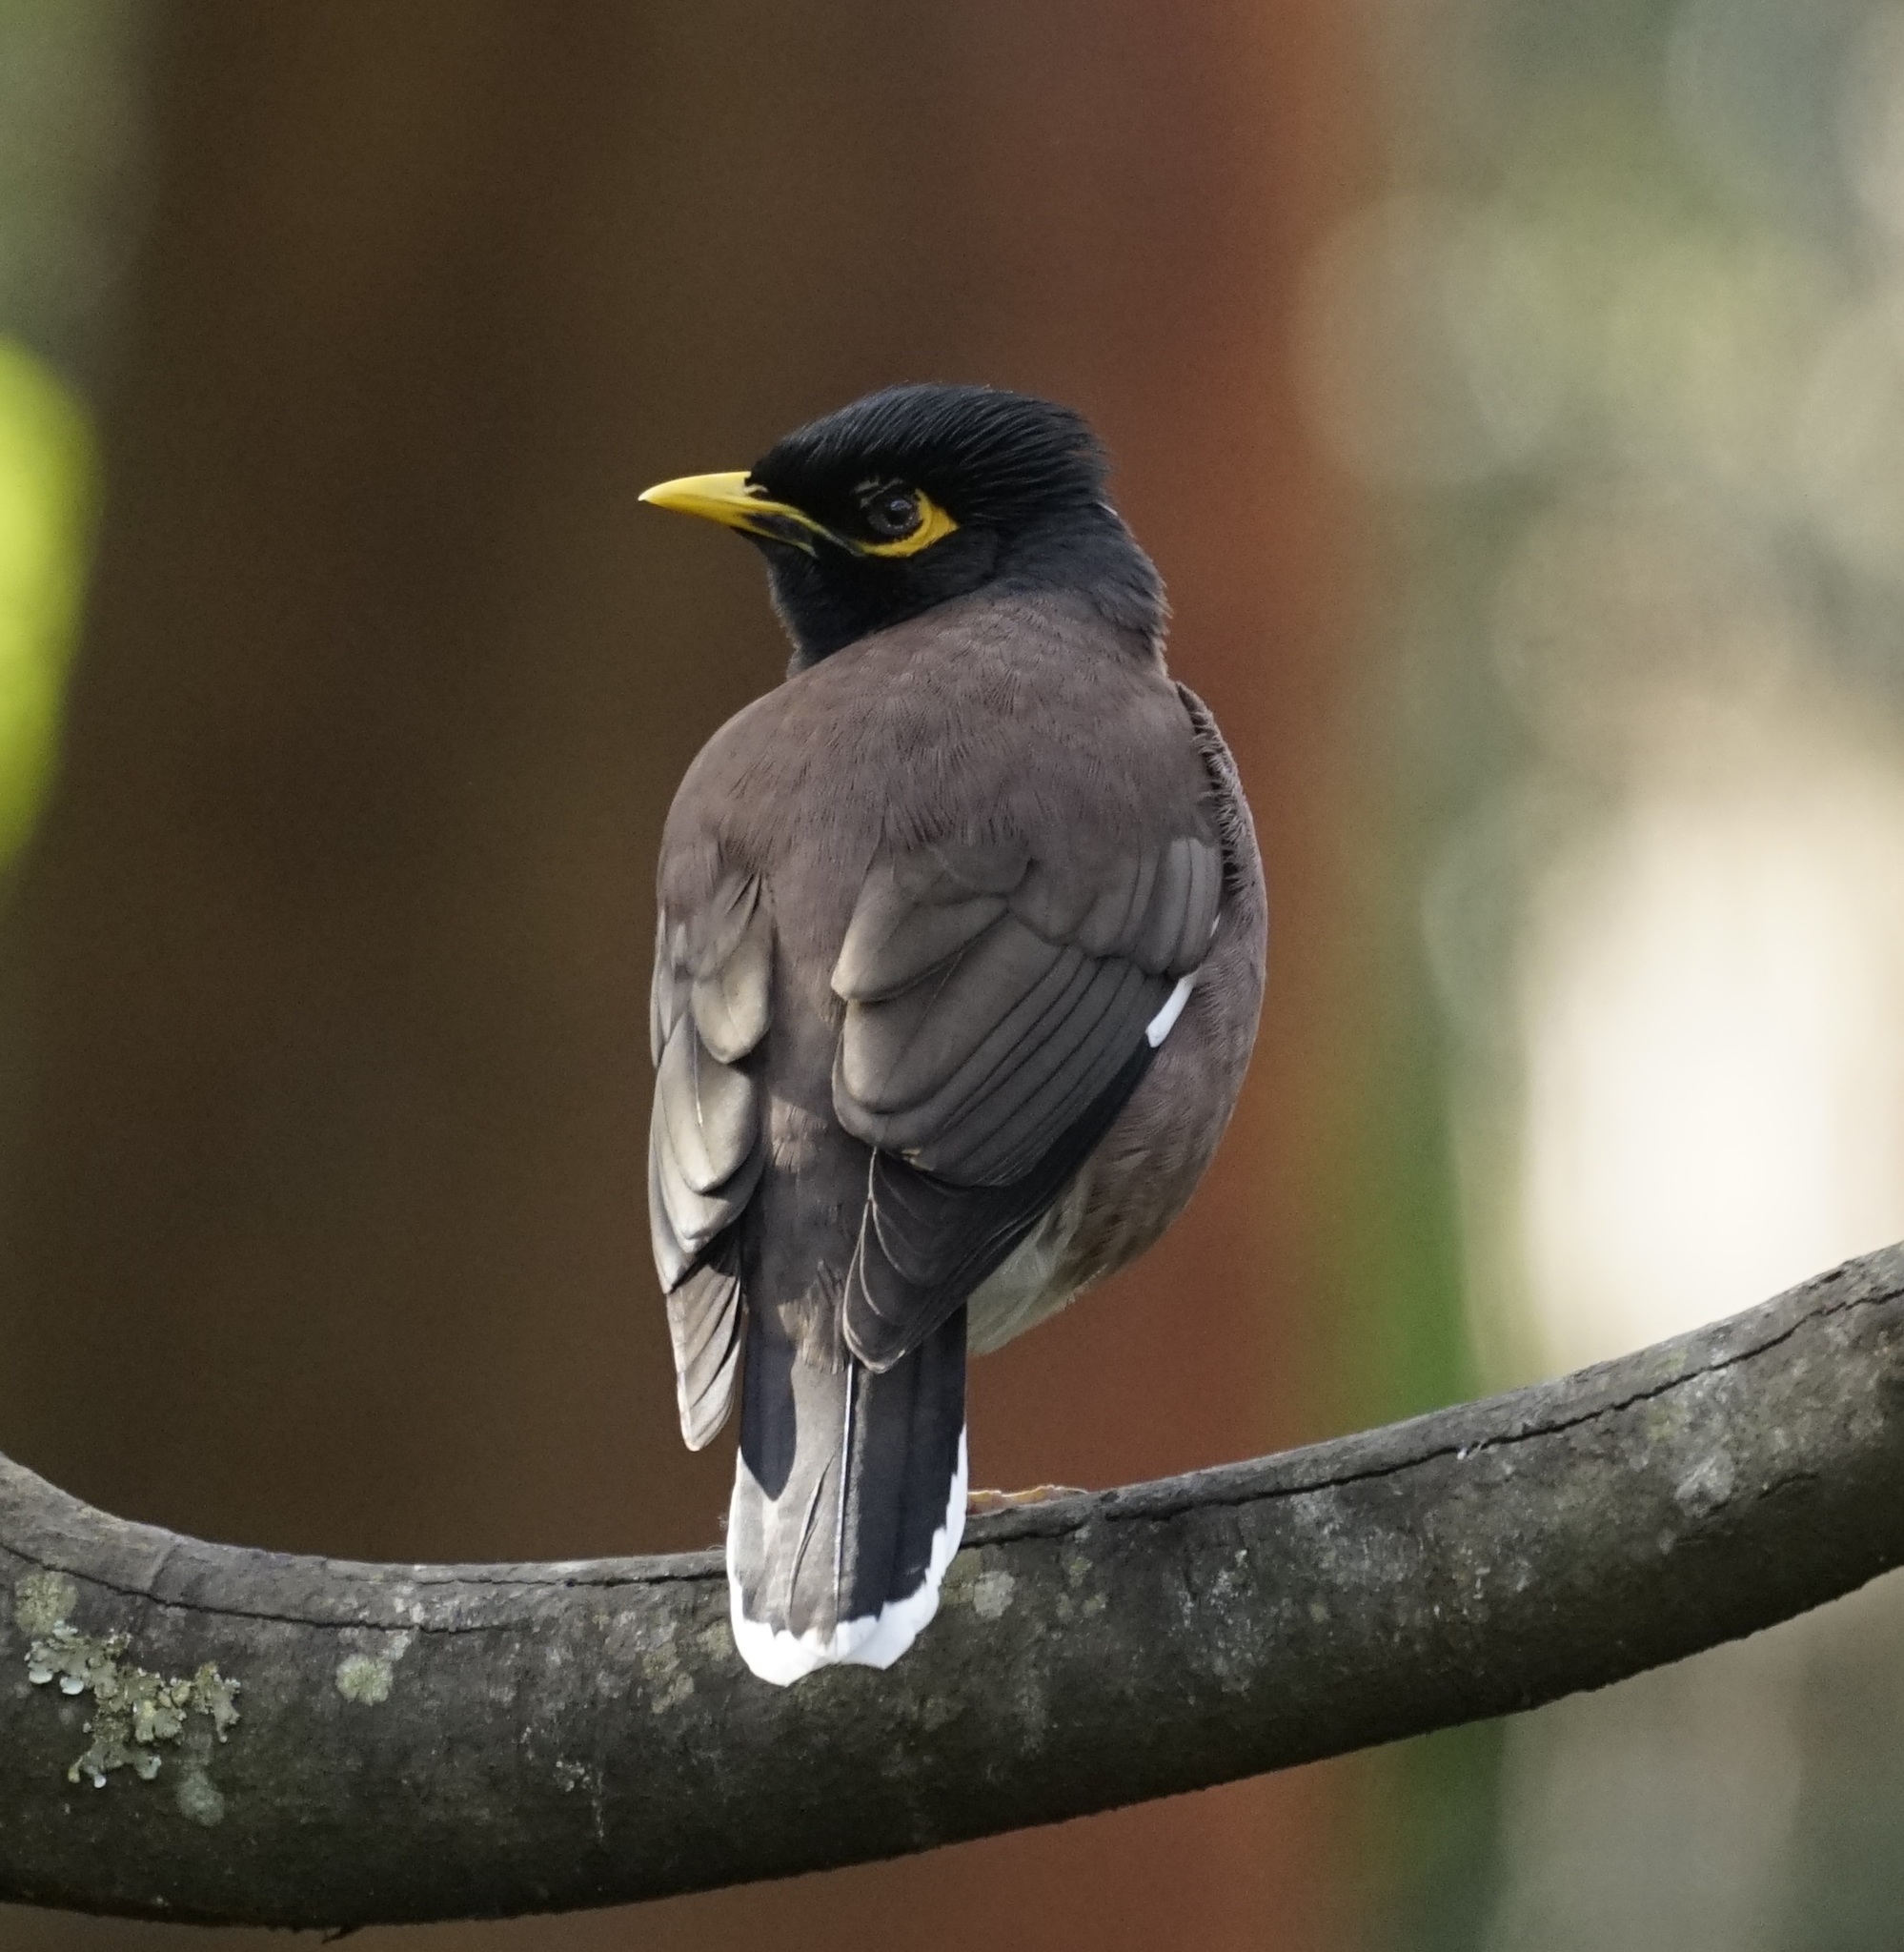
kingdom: Animalia
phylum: Chordata
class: Aves
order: Passeriformes
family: Sturnidae
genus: Acridotheres
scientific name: Acridotheres tristis
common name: Common myna
